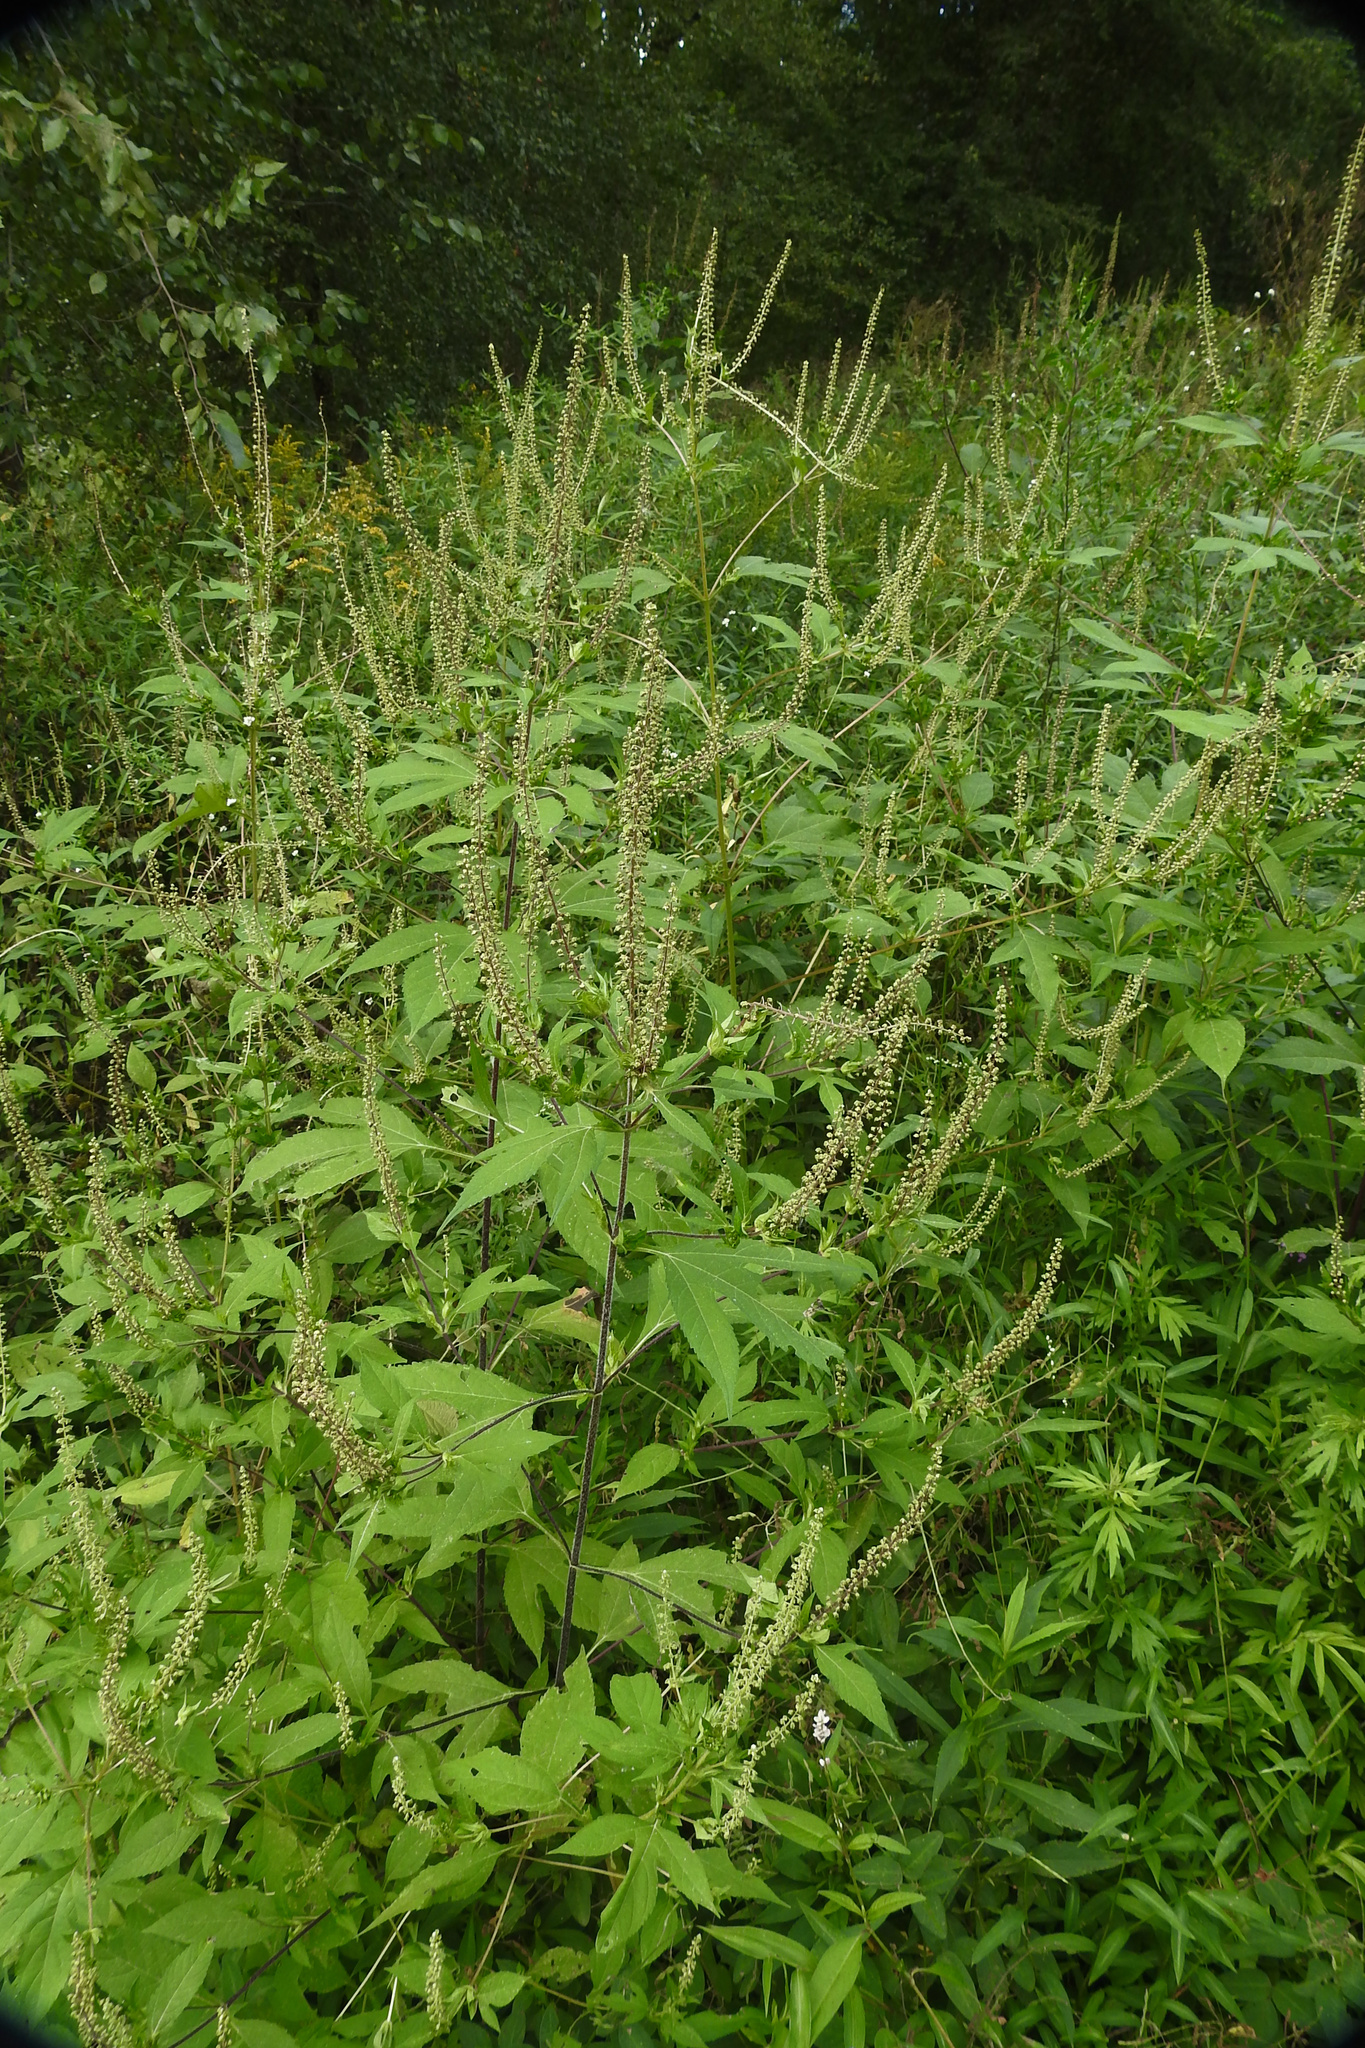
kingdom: Plantae
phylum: Tracheophyta
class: Magnoliopsida
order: Asterales
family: Asteraceae
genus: Ambrosia
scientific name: Ambrosia trifida
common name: Giant ragweed
